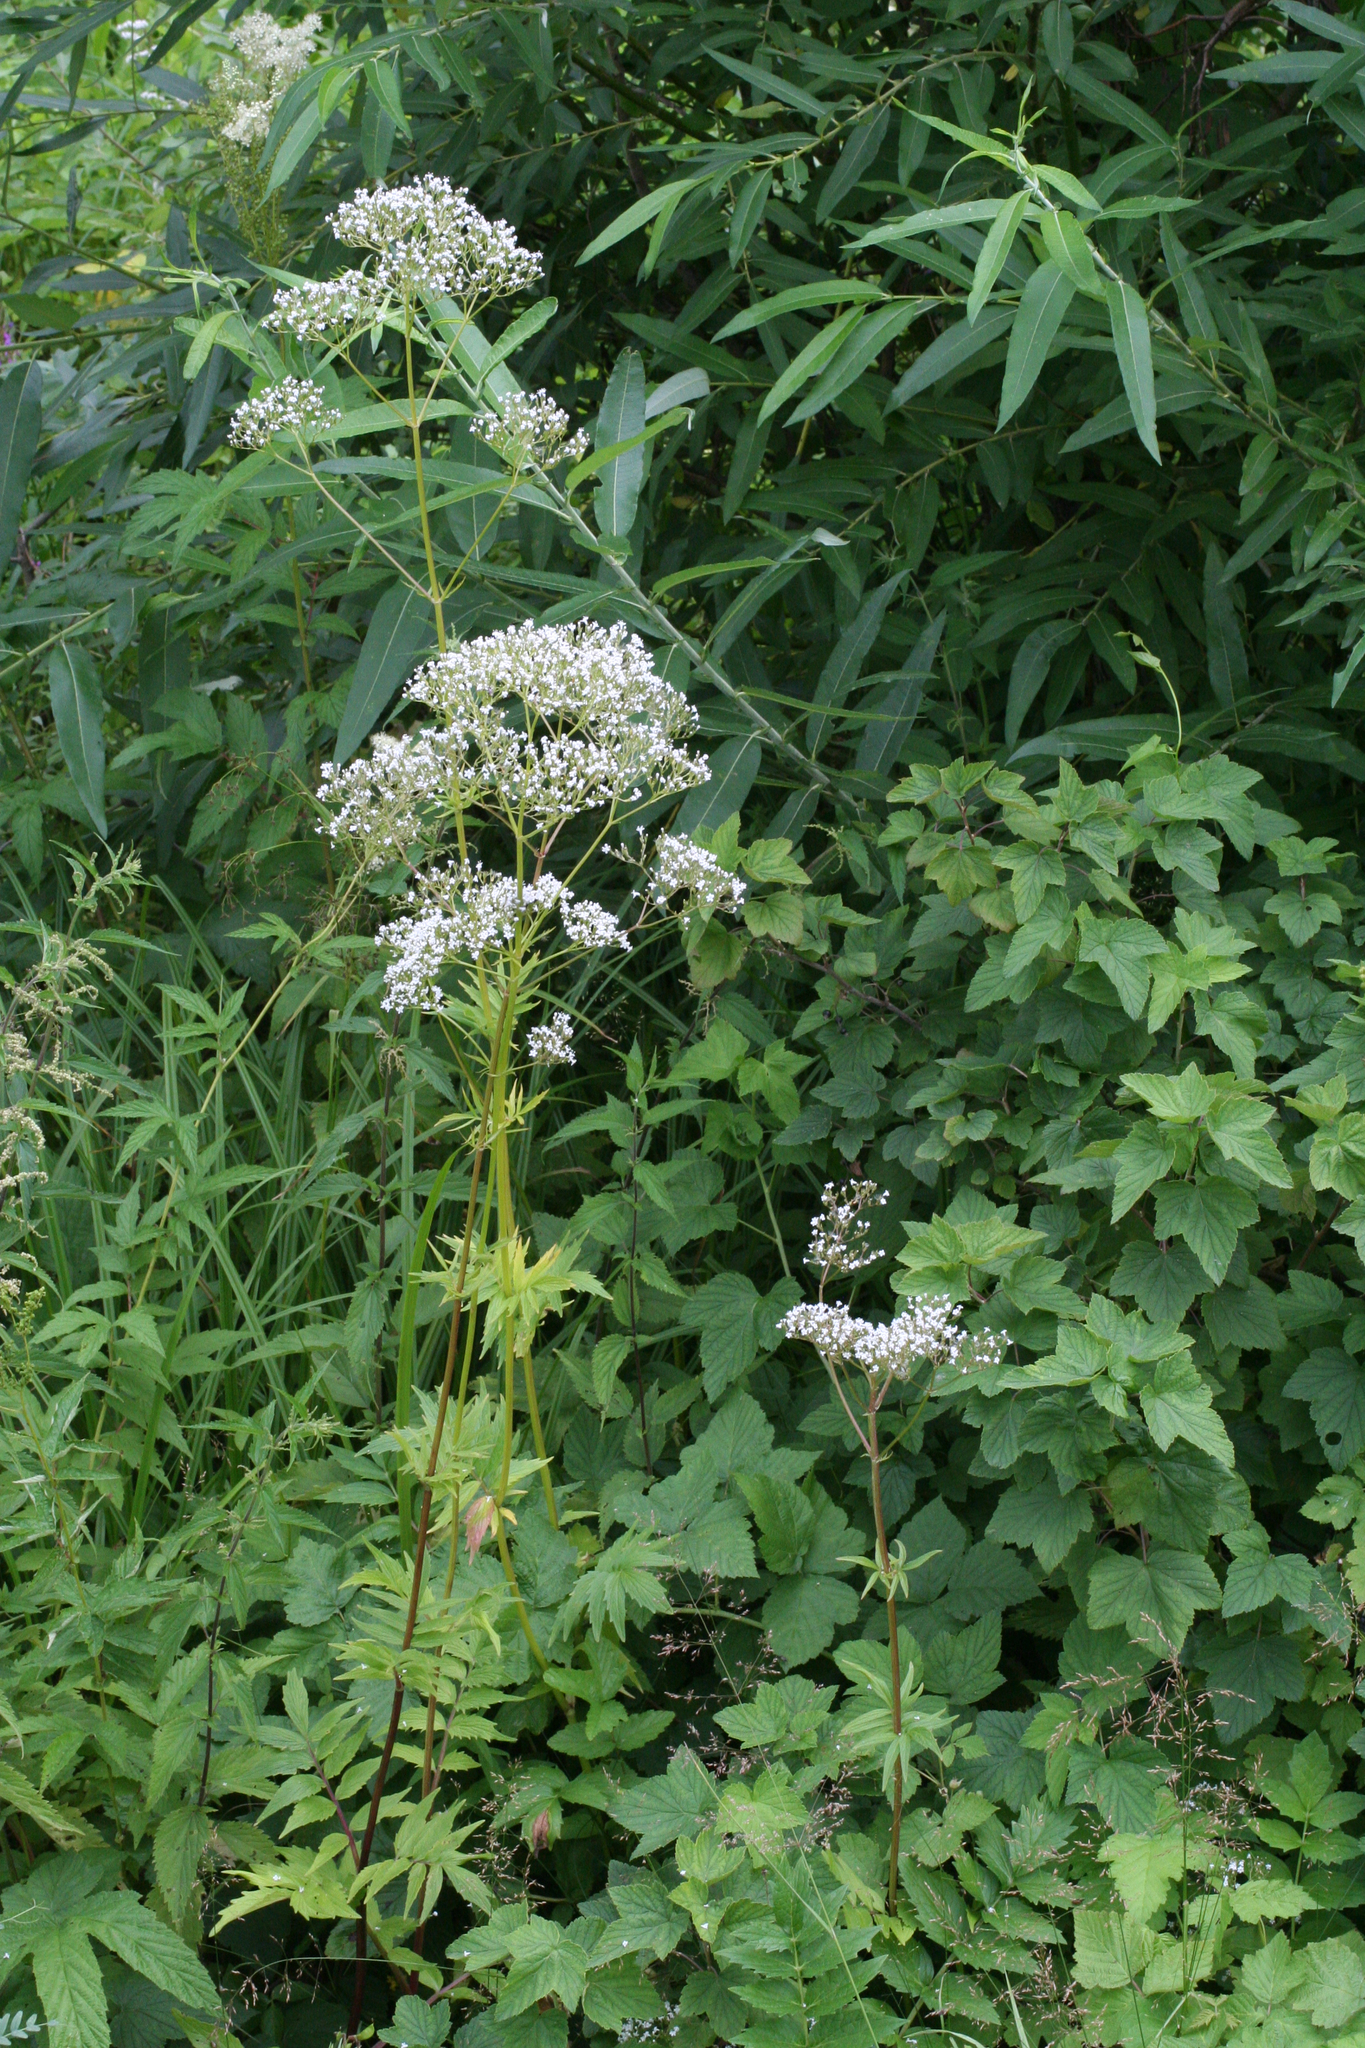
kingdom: Plantae
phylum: Tracheophyta
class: Magnoliopsida
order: Dipsacales
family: Caprifoliaceae
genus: Valeriana
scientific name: Valeriana officinalis
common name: Common valerian
